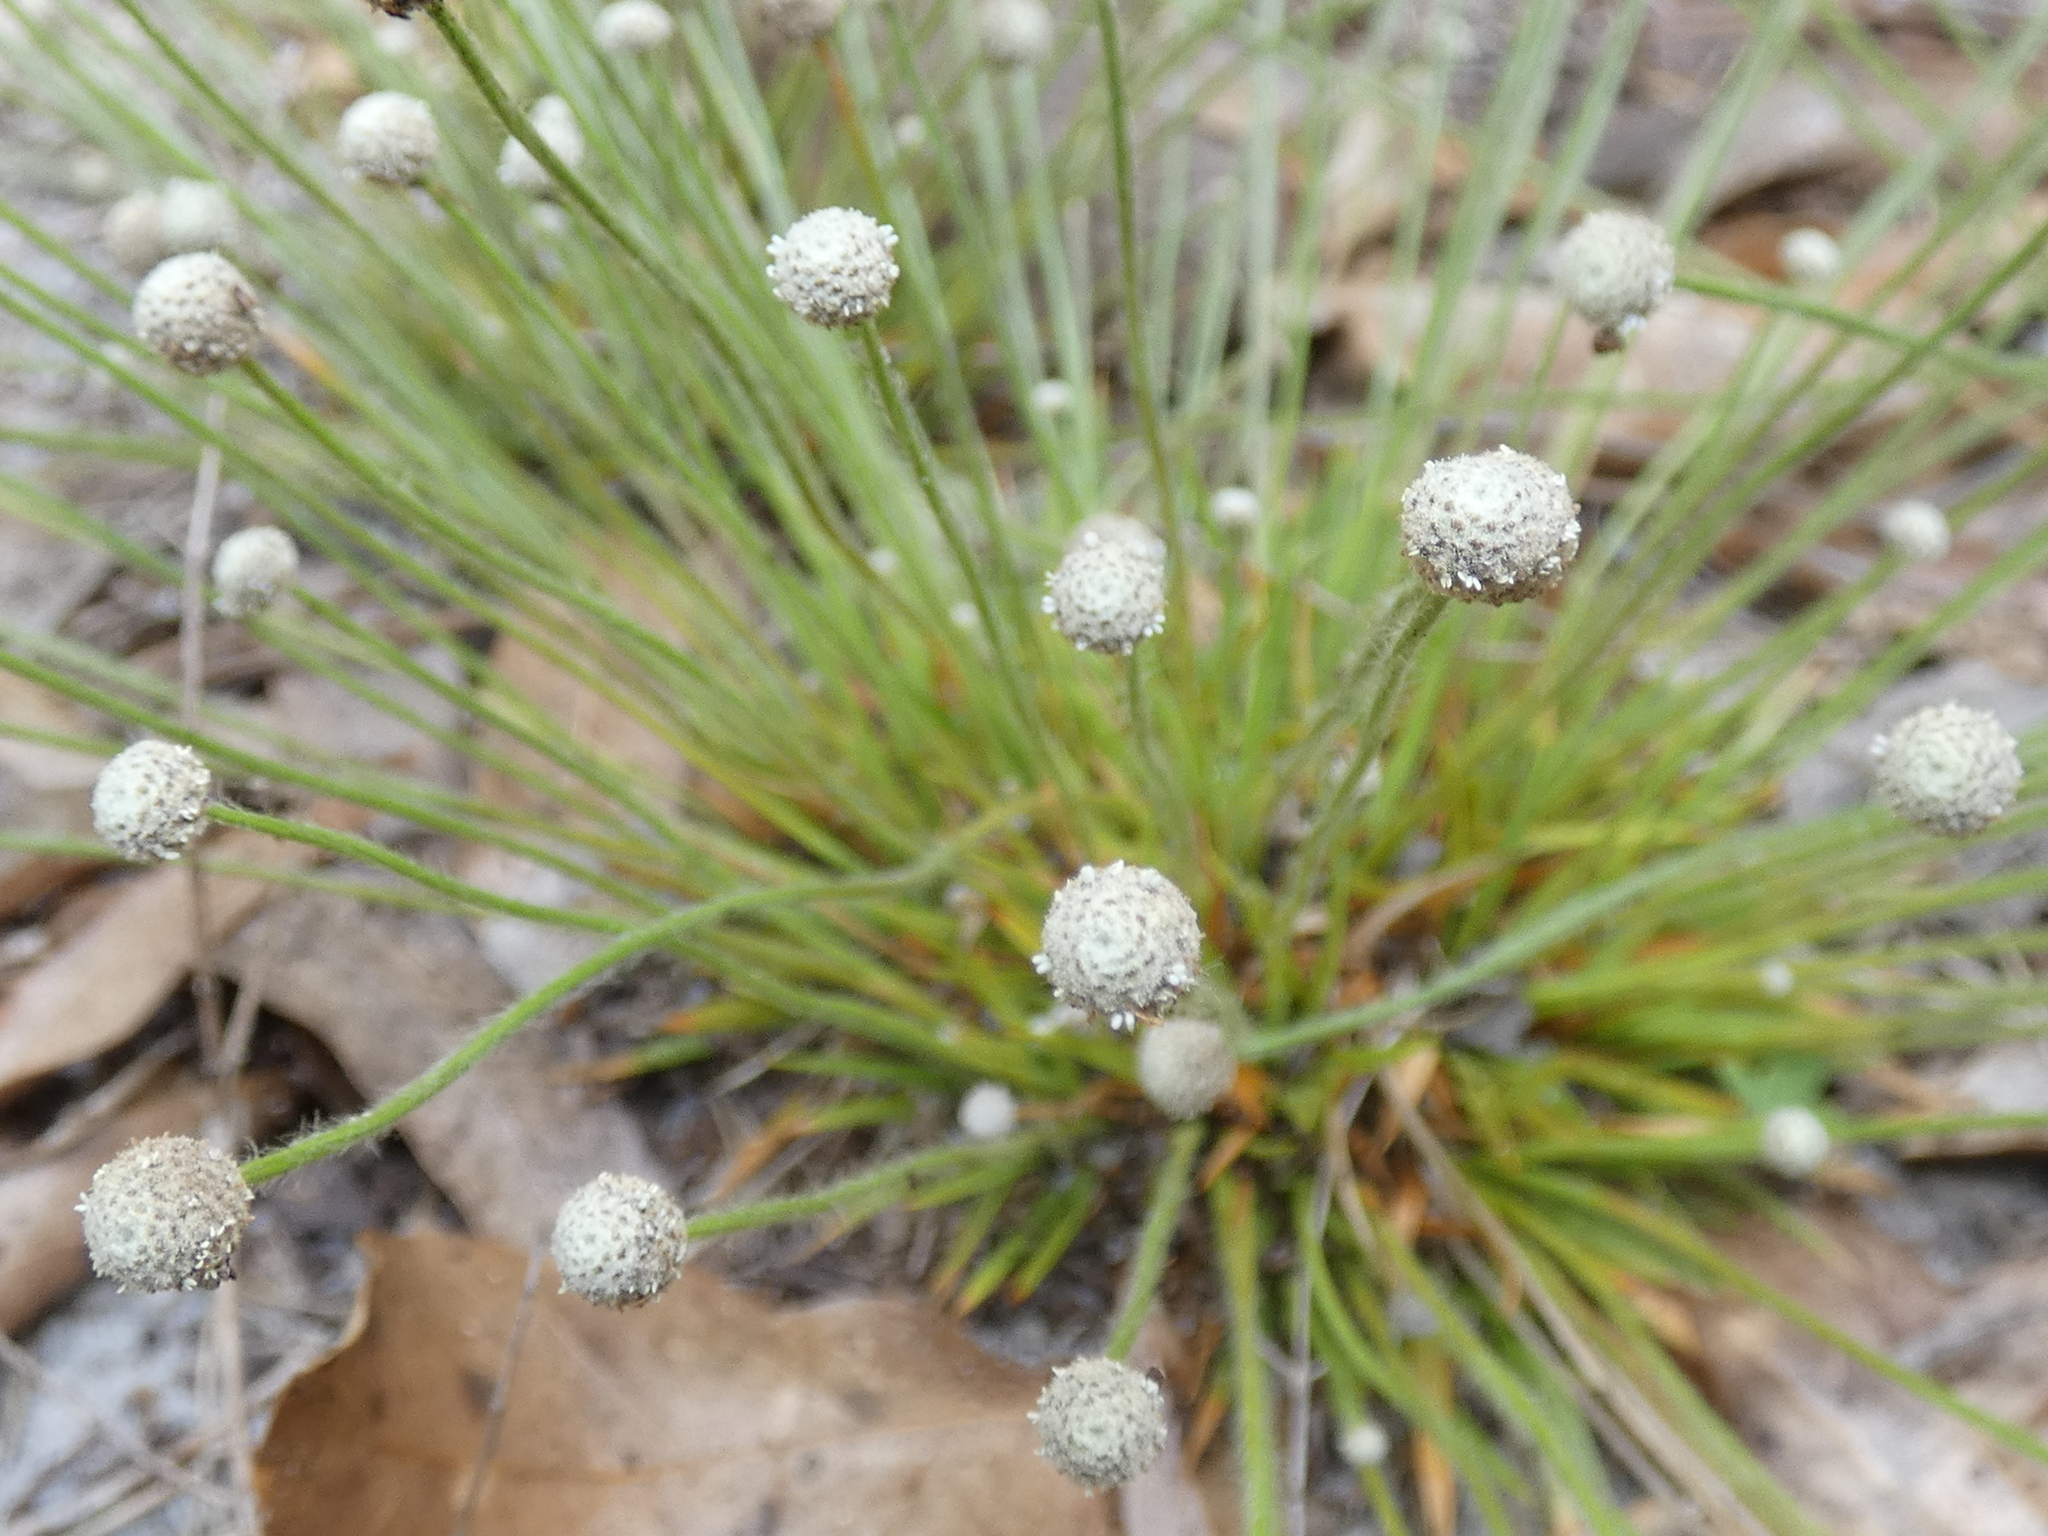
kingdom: Plantae
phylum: Tracheophyta
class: Liliopsida
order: Poales
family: Eriocaulaceae
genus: Paepalanthus
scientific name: Paepalanthus minus
